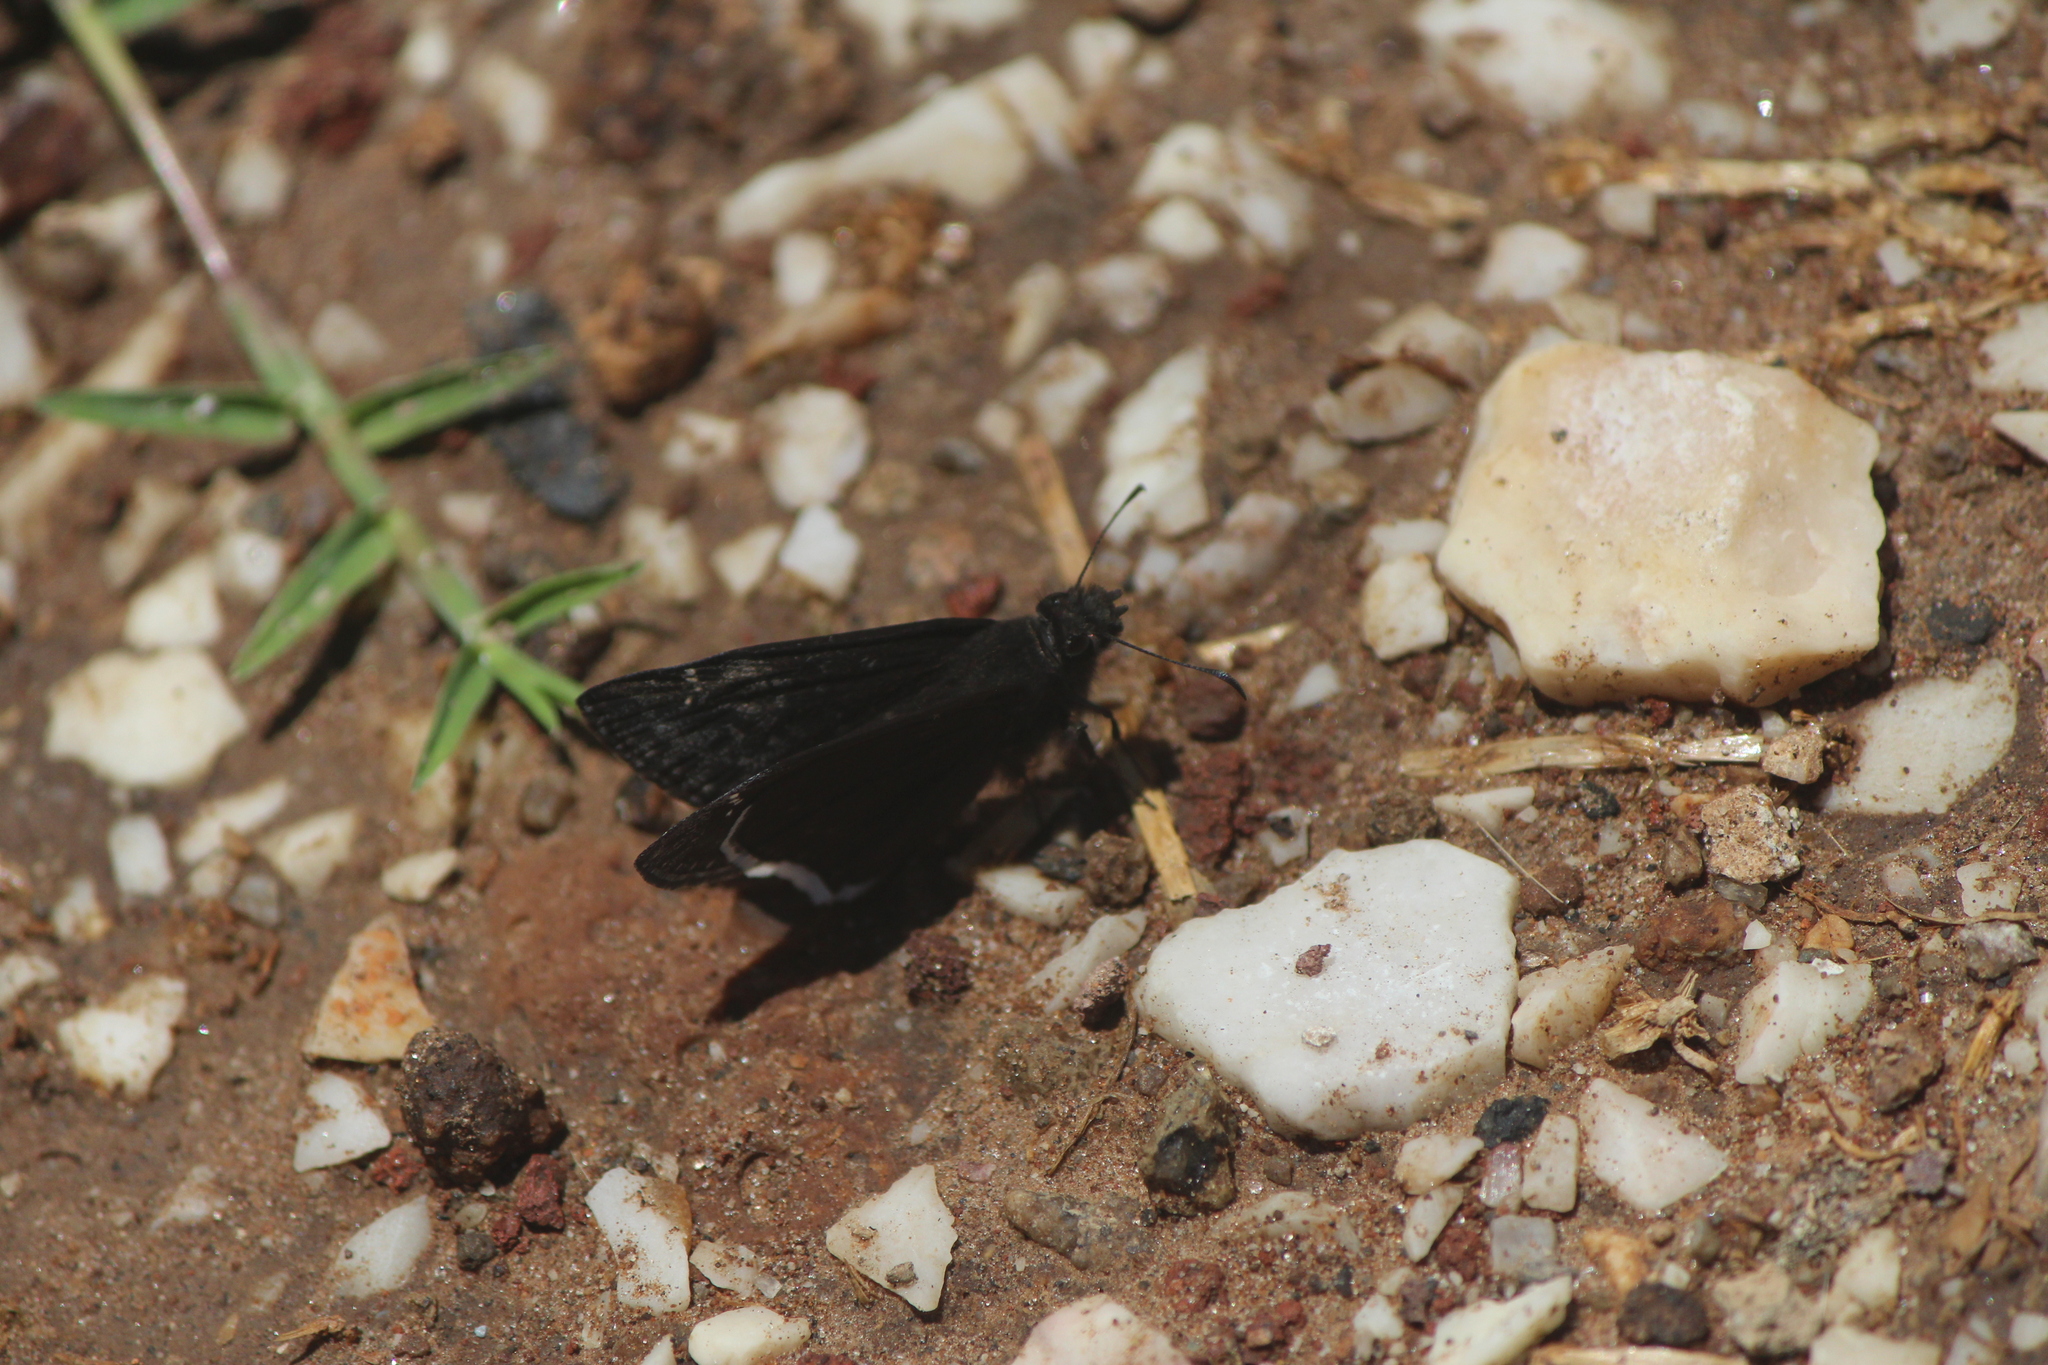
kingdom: Animalia
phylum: Arthropoda
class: Insecta
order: Lepidoptera
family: Hesperiidae
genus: Erynnis
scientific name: Erynnis funeralis
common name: Funereal duskywing
